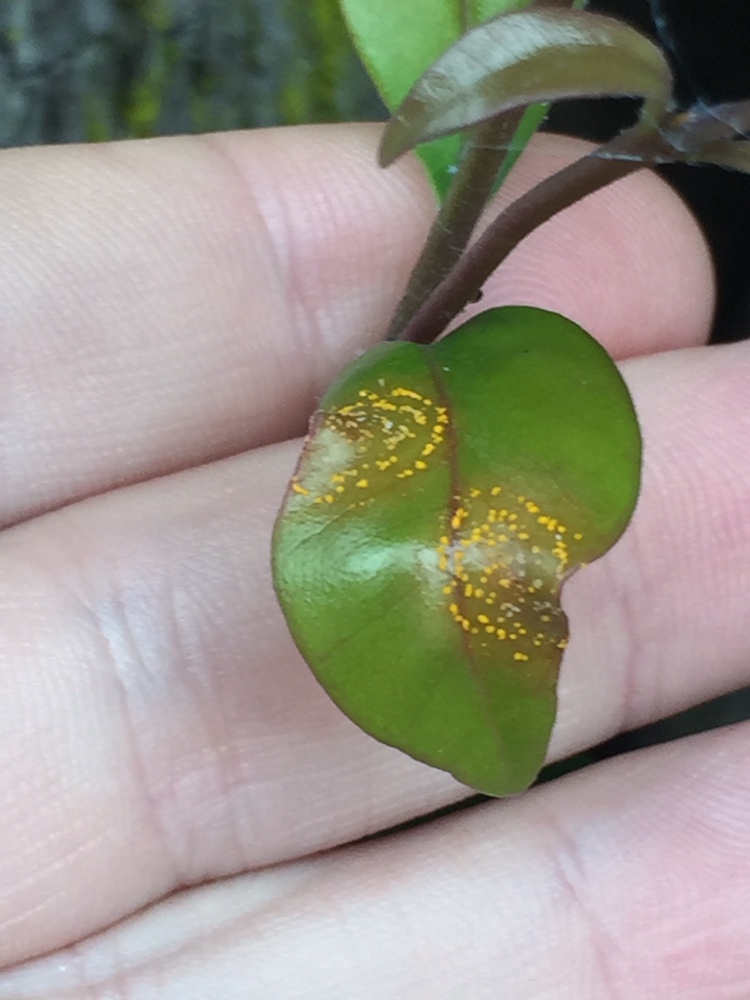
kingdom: Fungi
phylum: Basidiomycota
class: Pucciniomycetes
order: Pucciniales
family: Sphaerophragmiaceae
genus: Austropuccinia
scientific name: Austropuccinia psidii
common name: Myrtle rust
